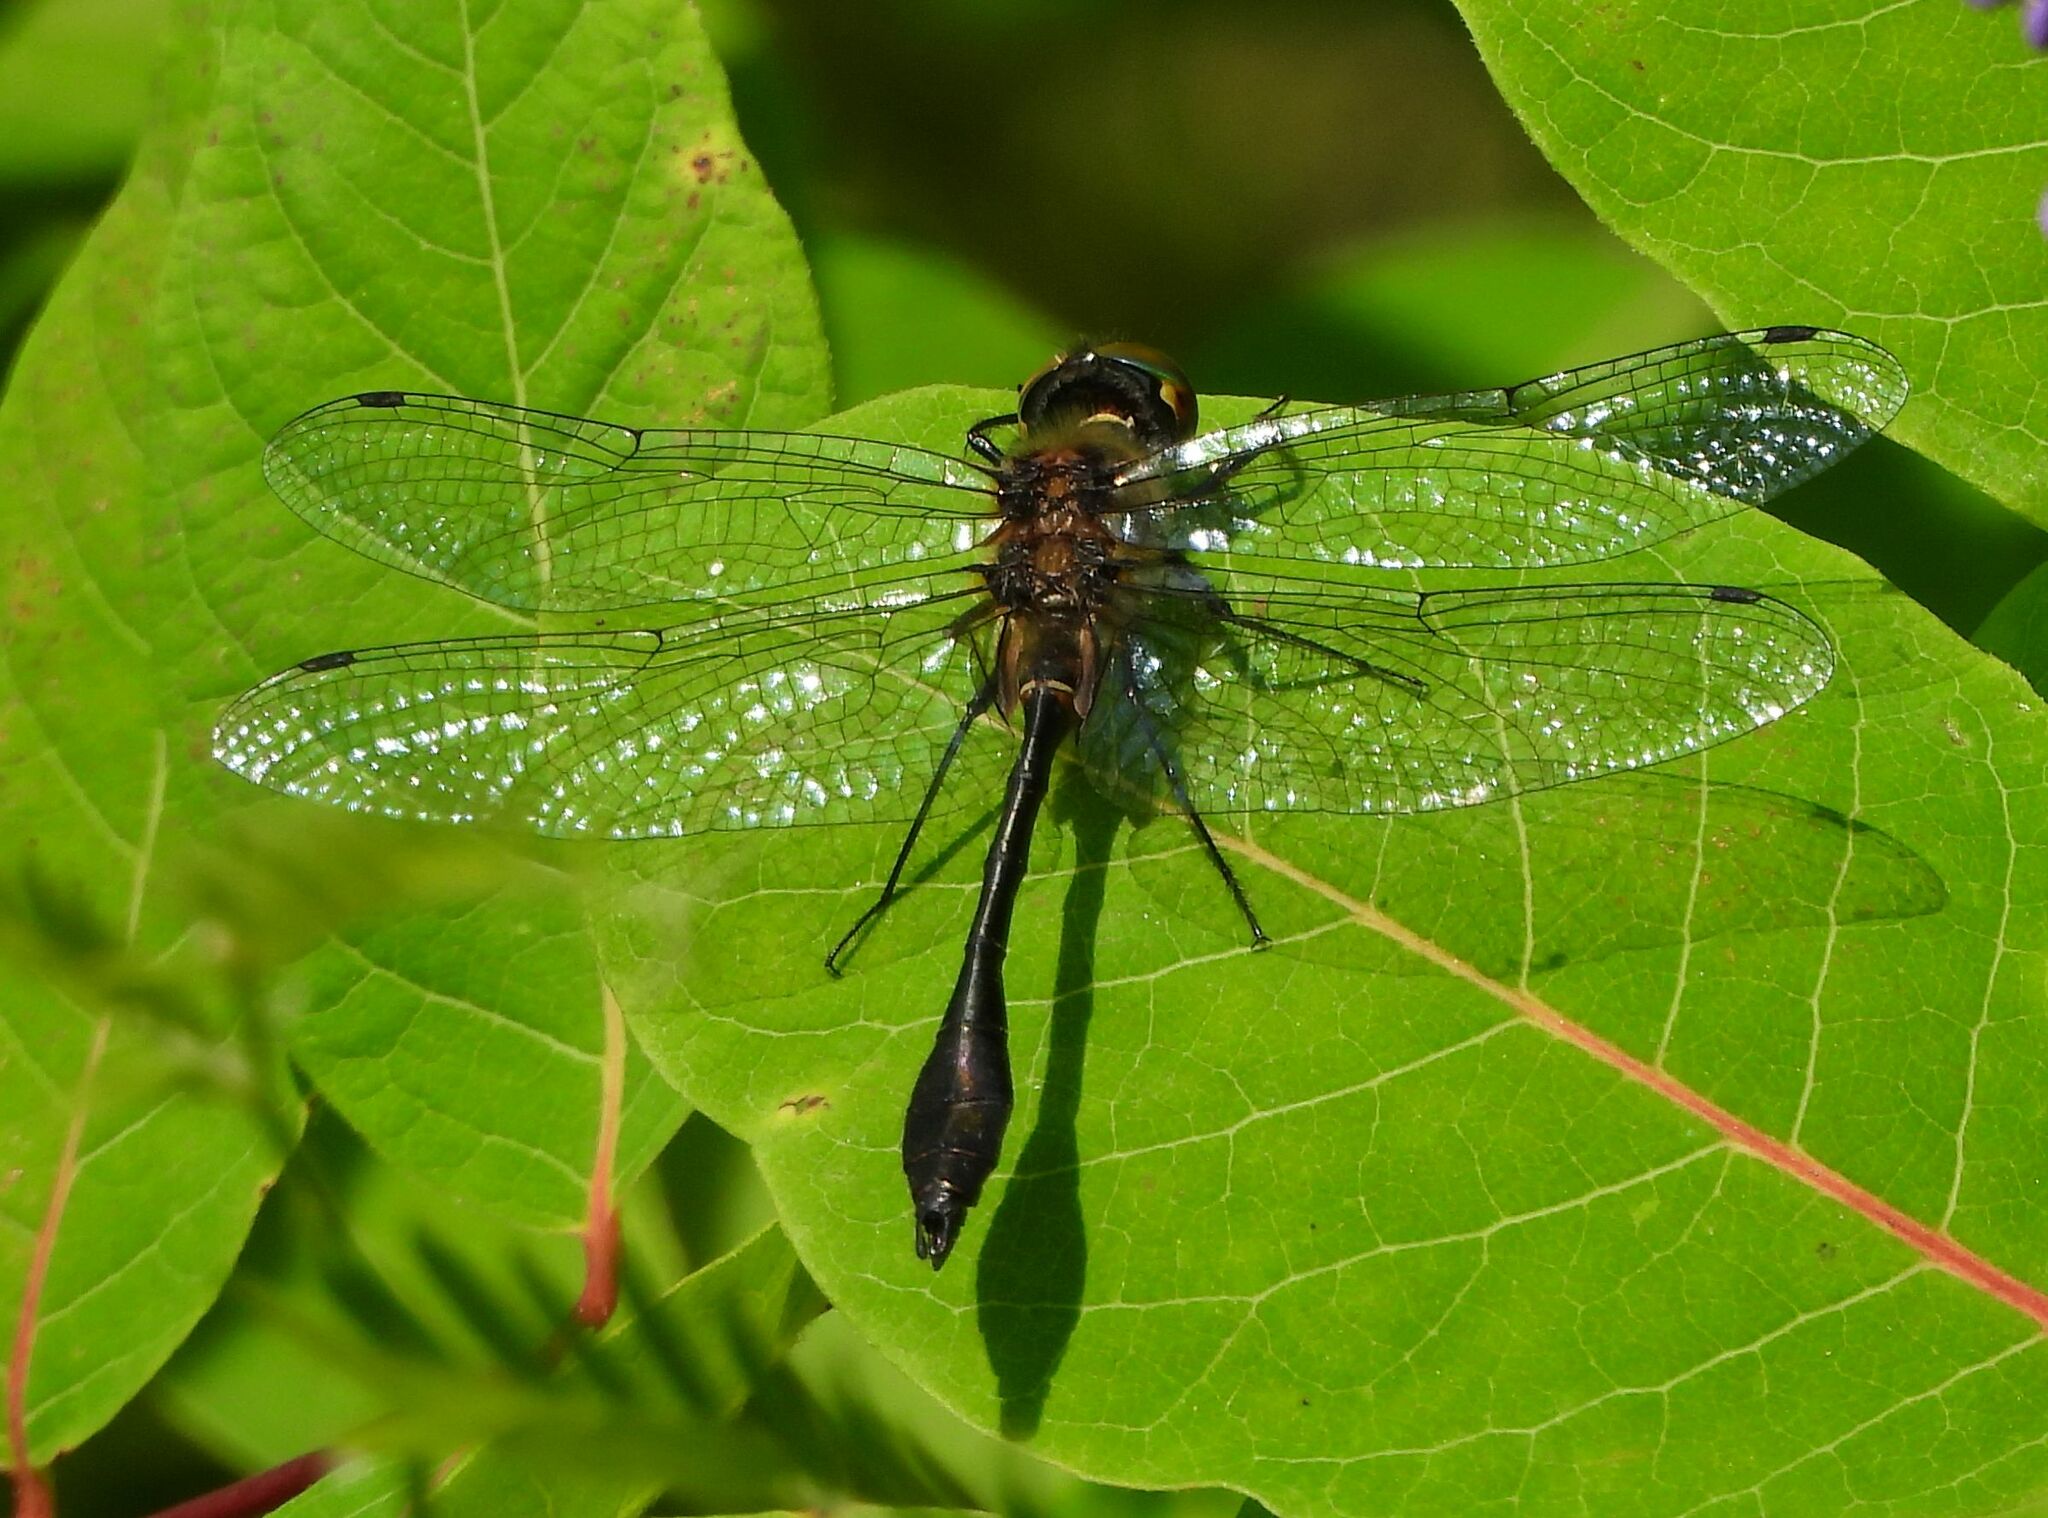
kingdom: Animalia
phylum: Arthropoda
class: Insecta
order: Odonata
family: Corduliidae
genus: Dorocordulia
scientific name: Dorocordulia libera
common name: Racket-tailed emerald
